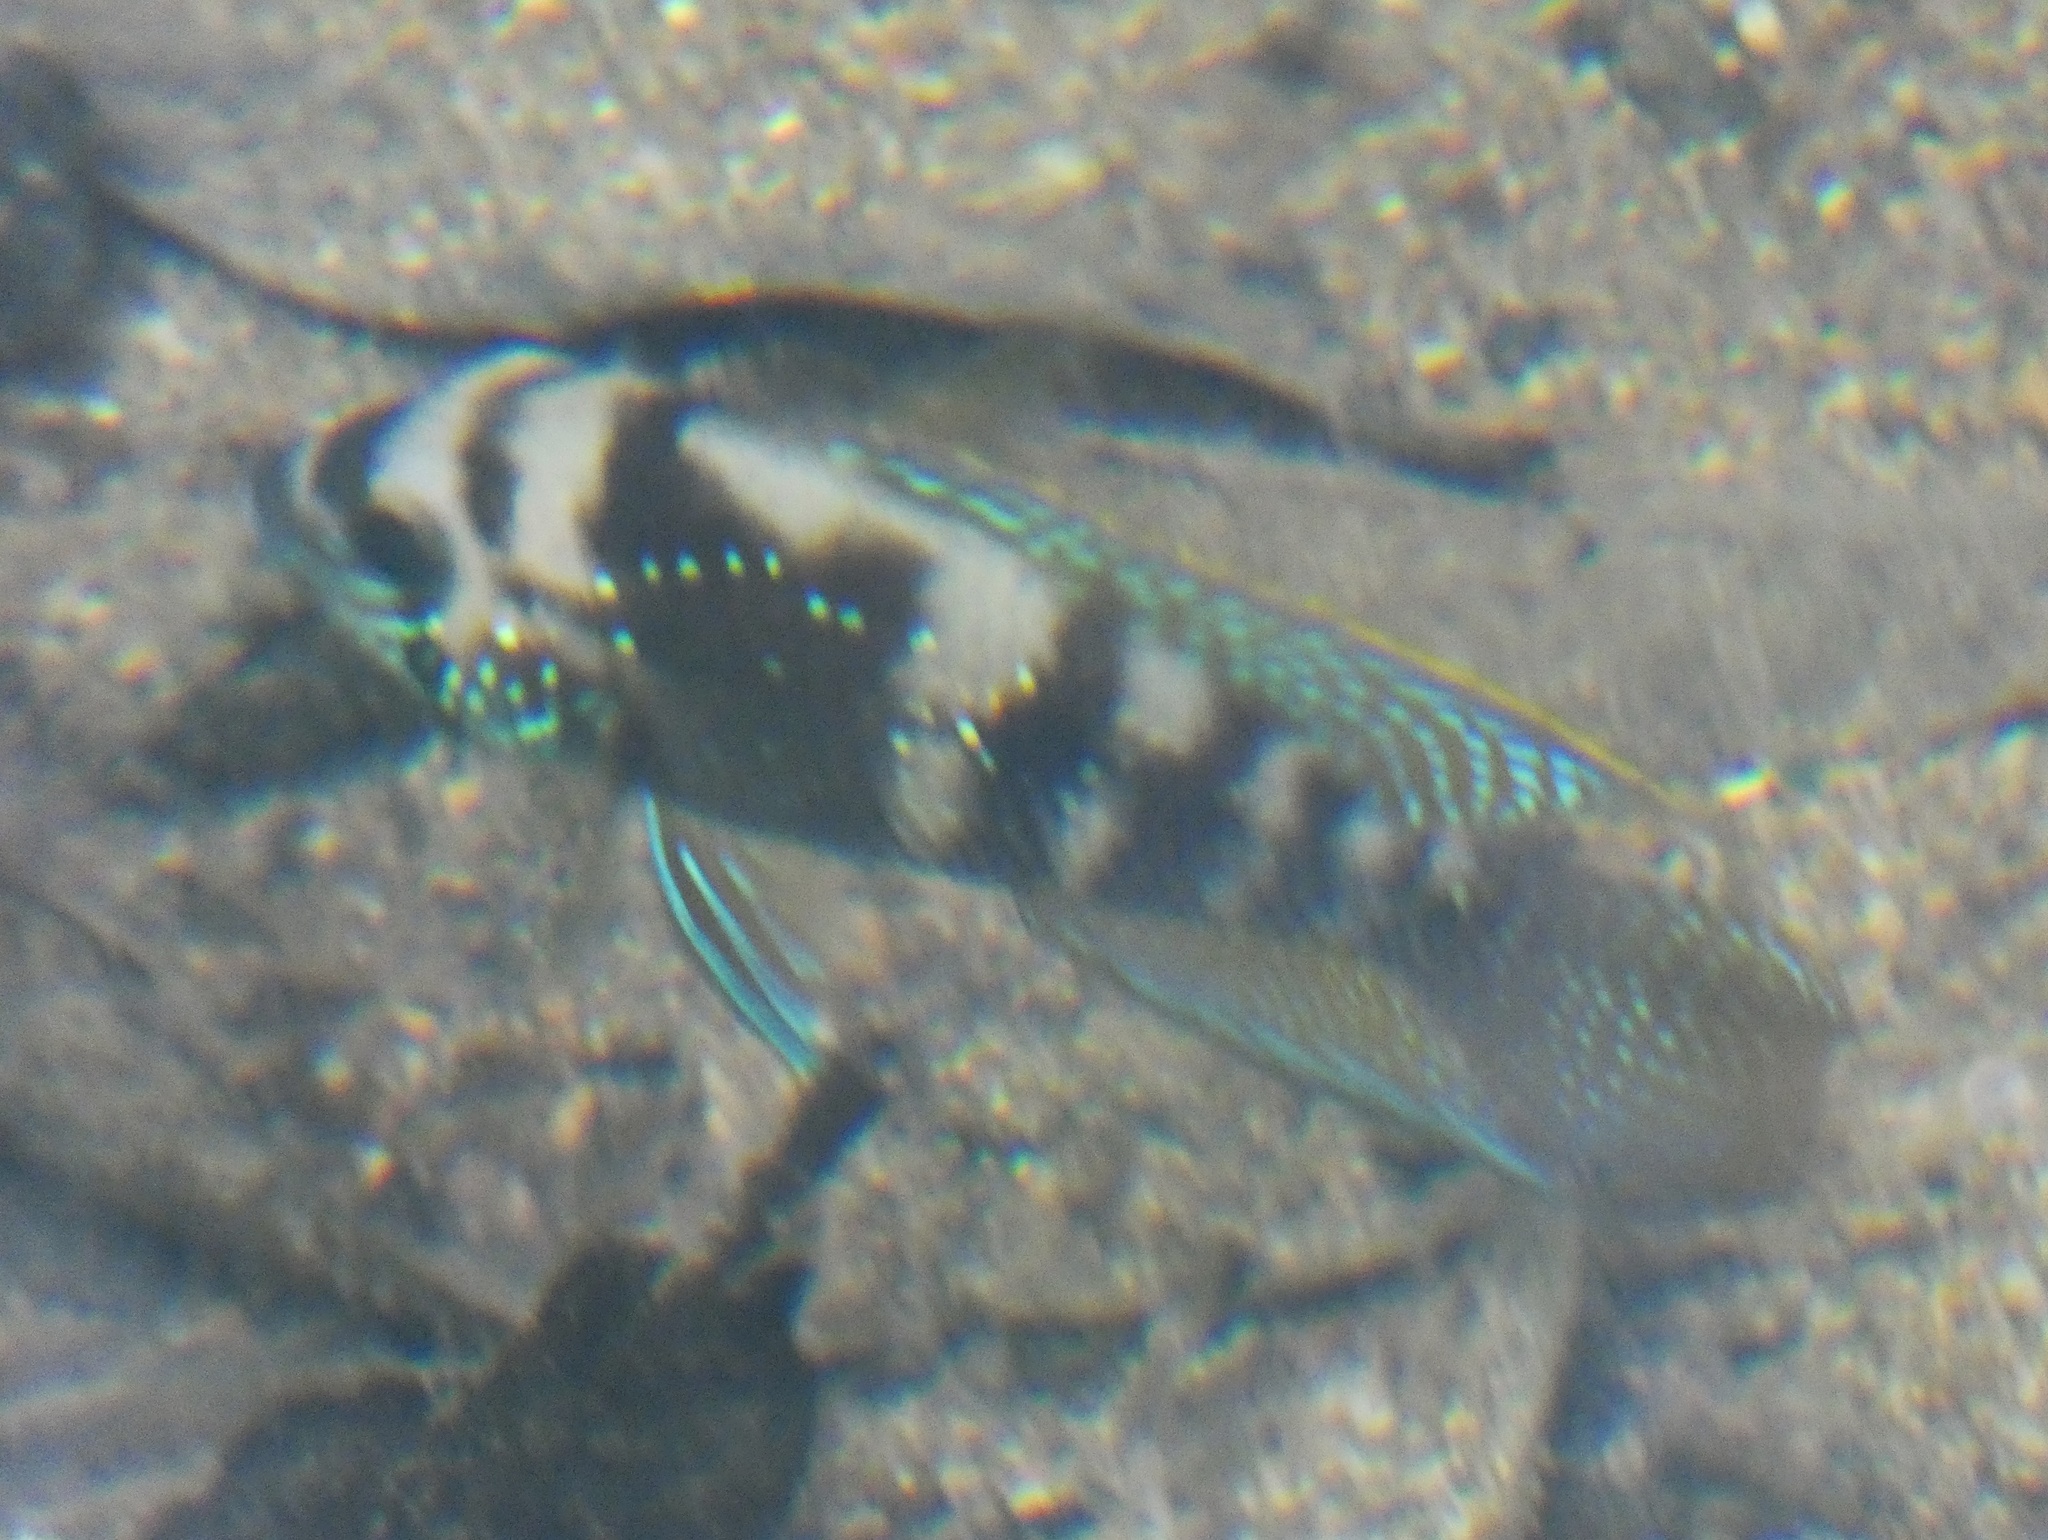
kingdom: Animalia
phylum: Chordata
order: Perciformes
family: Cichlidae
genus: Andinoacara
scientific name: Andinoacara coeruleopunctatus
